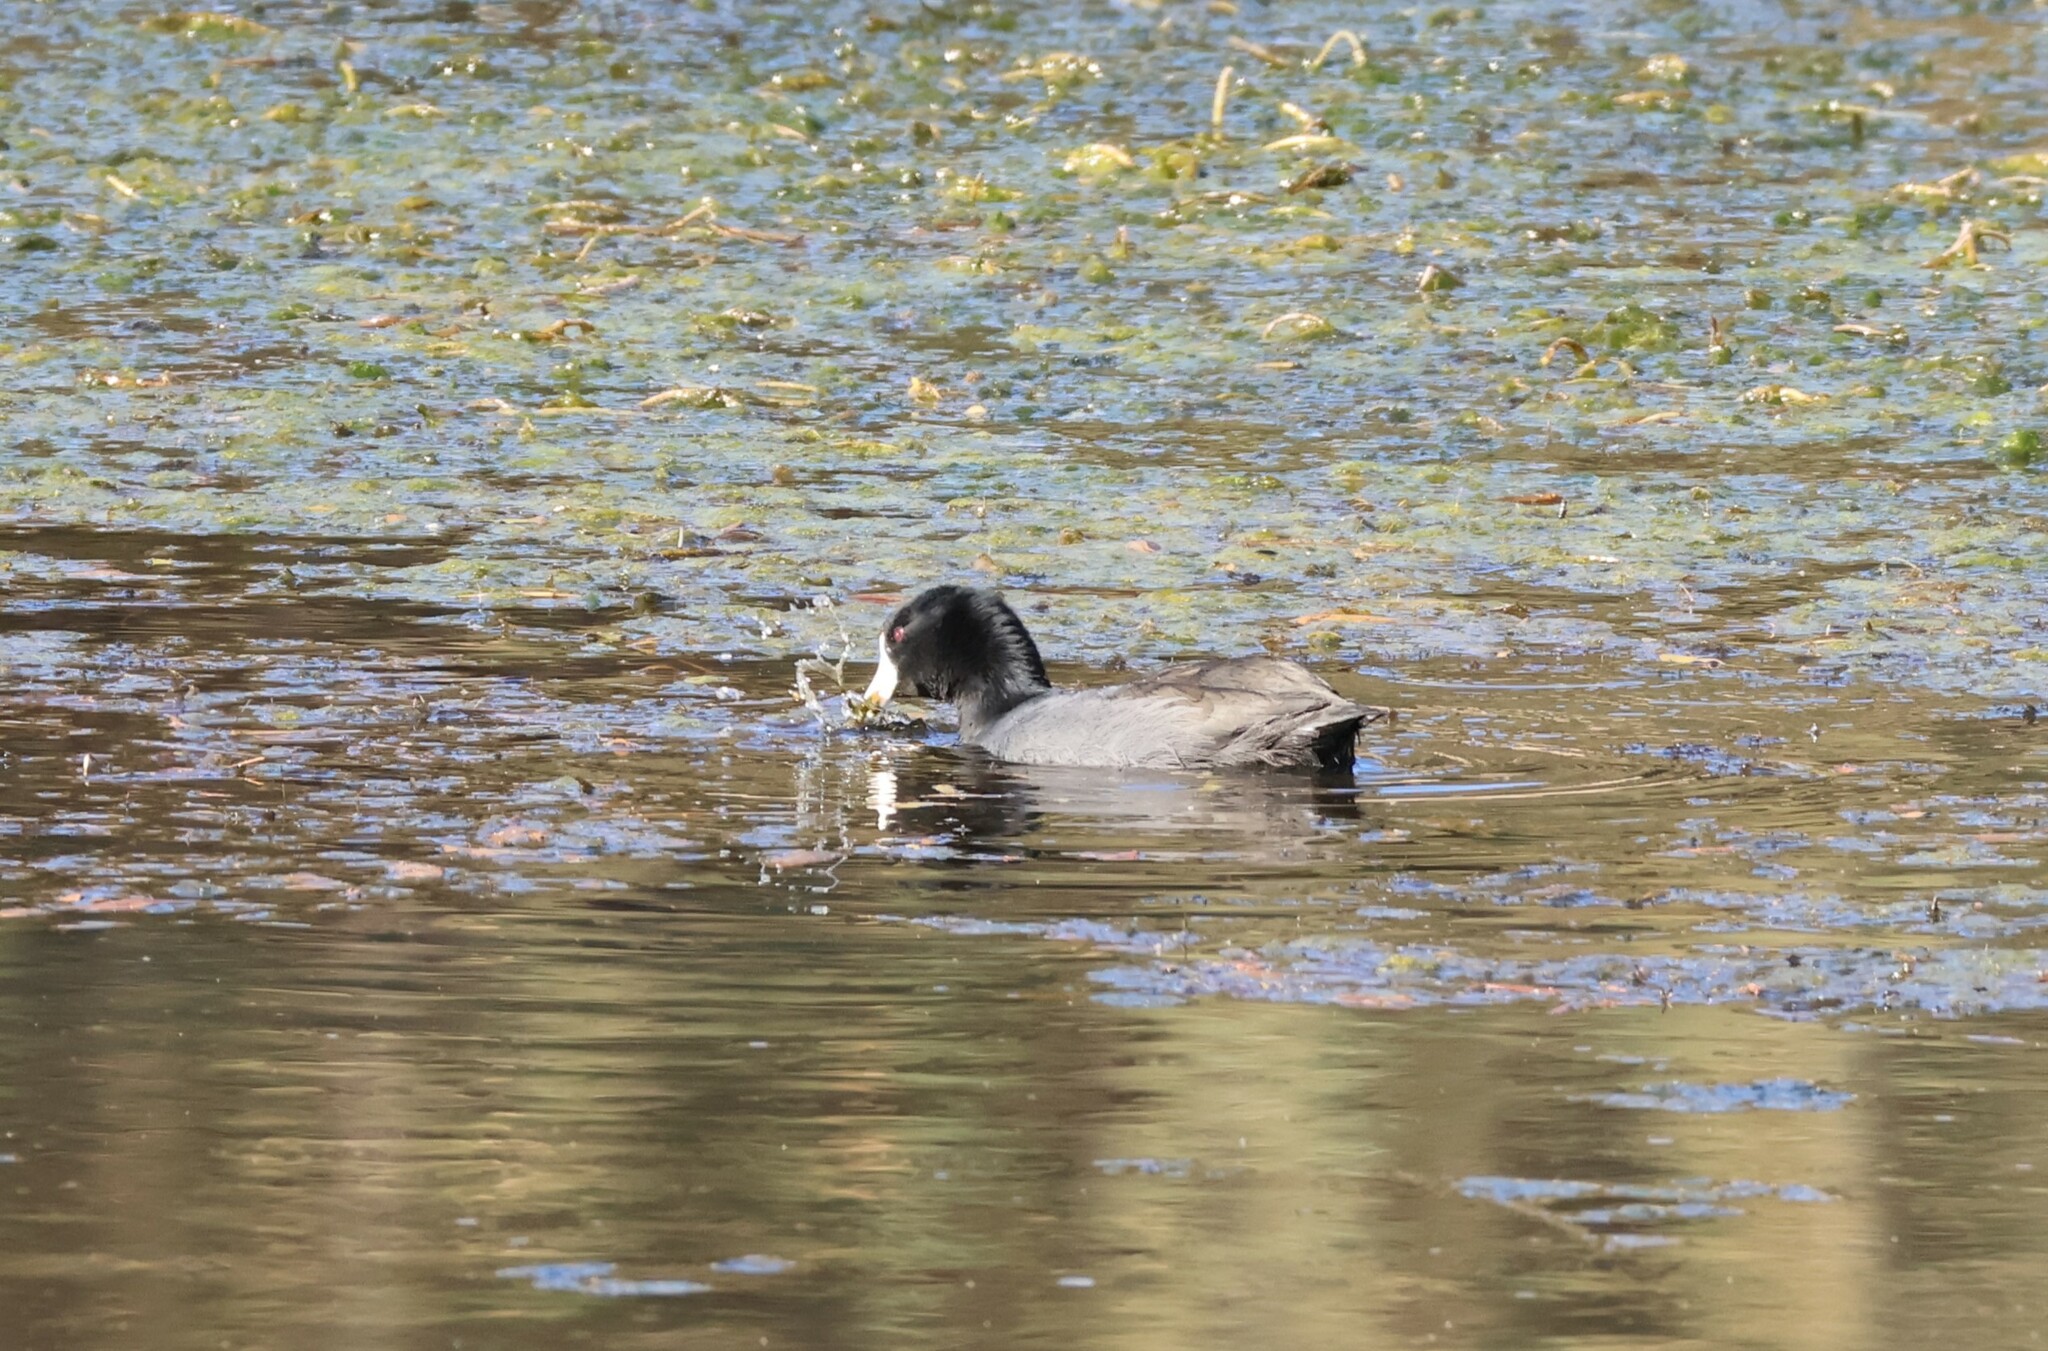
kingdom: Animalia
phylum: Chordata
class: Aves
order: Gruiformes
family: Rallidae
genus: Fulica
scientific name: Fulica americana
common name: American coot
